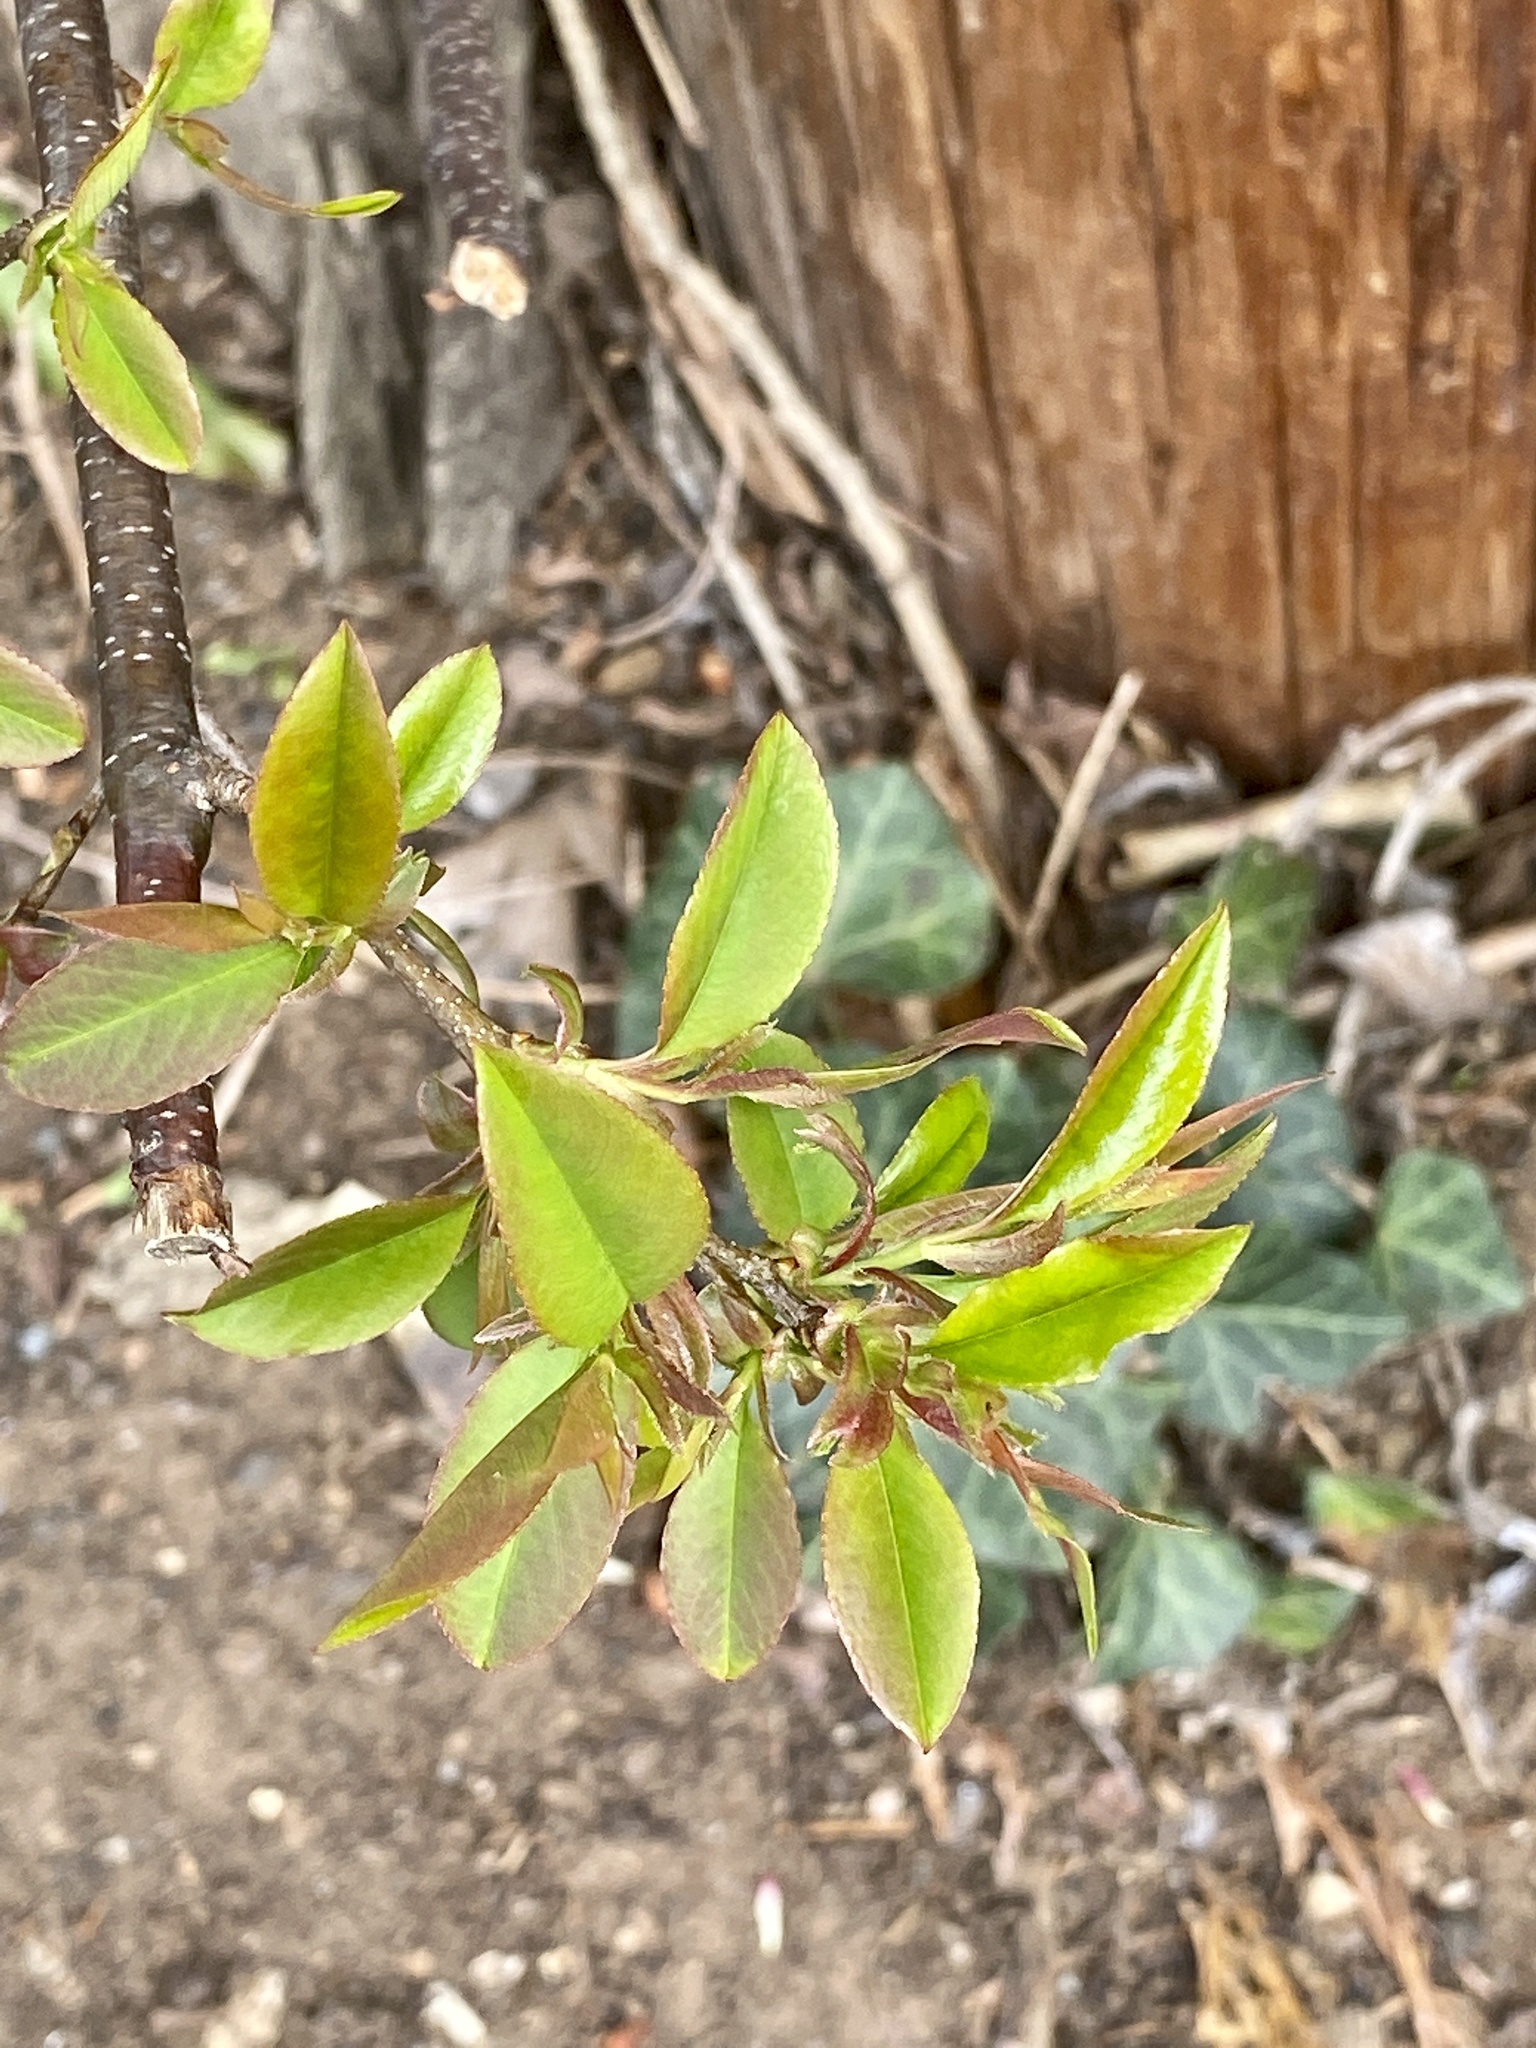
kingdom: Plantae
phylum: Tracheophyta
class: Magnoliopsida
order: Rosales
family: Rosaceae
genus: Prunus
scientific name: Prunus serotina
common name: Black cherry
